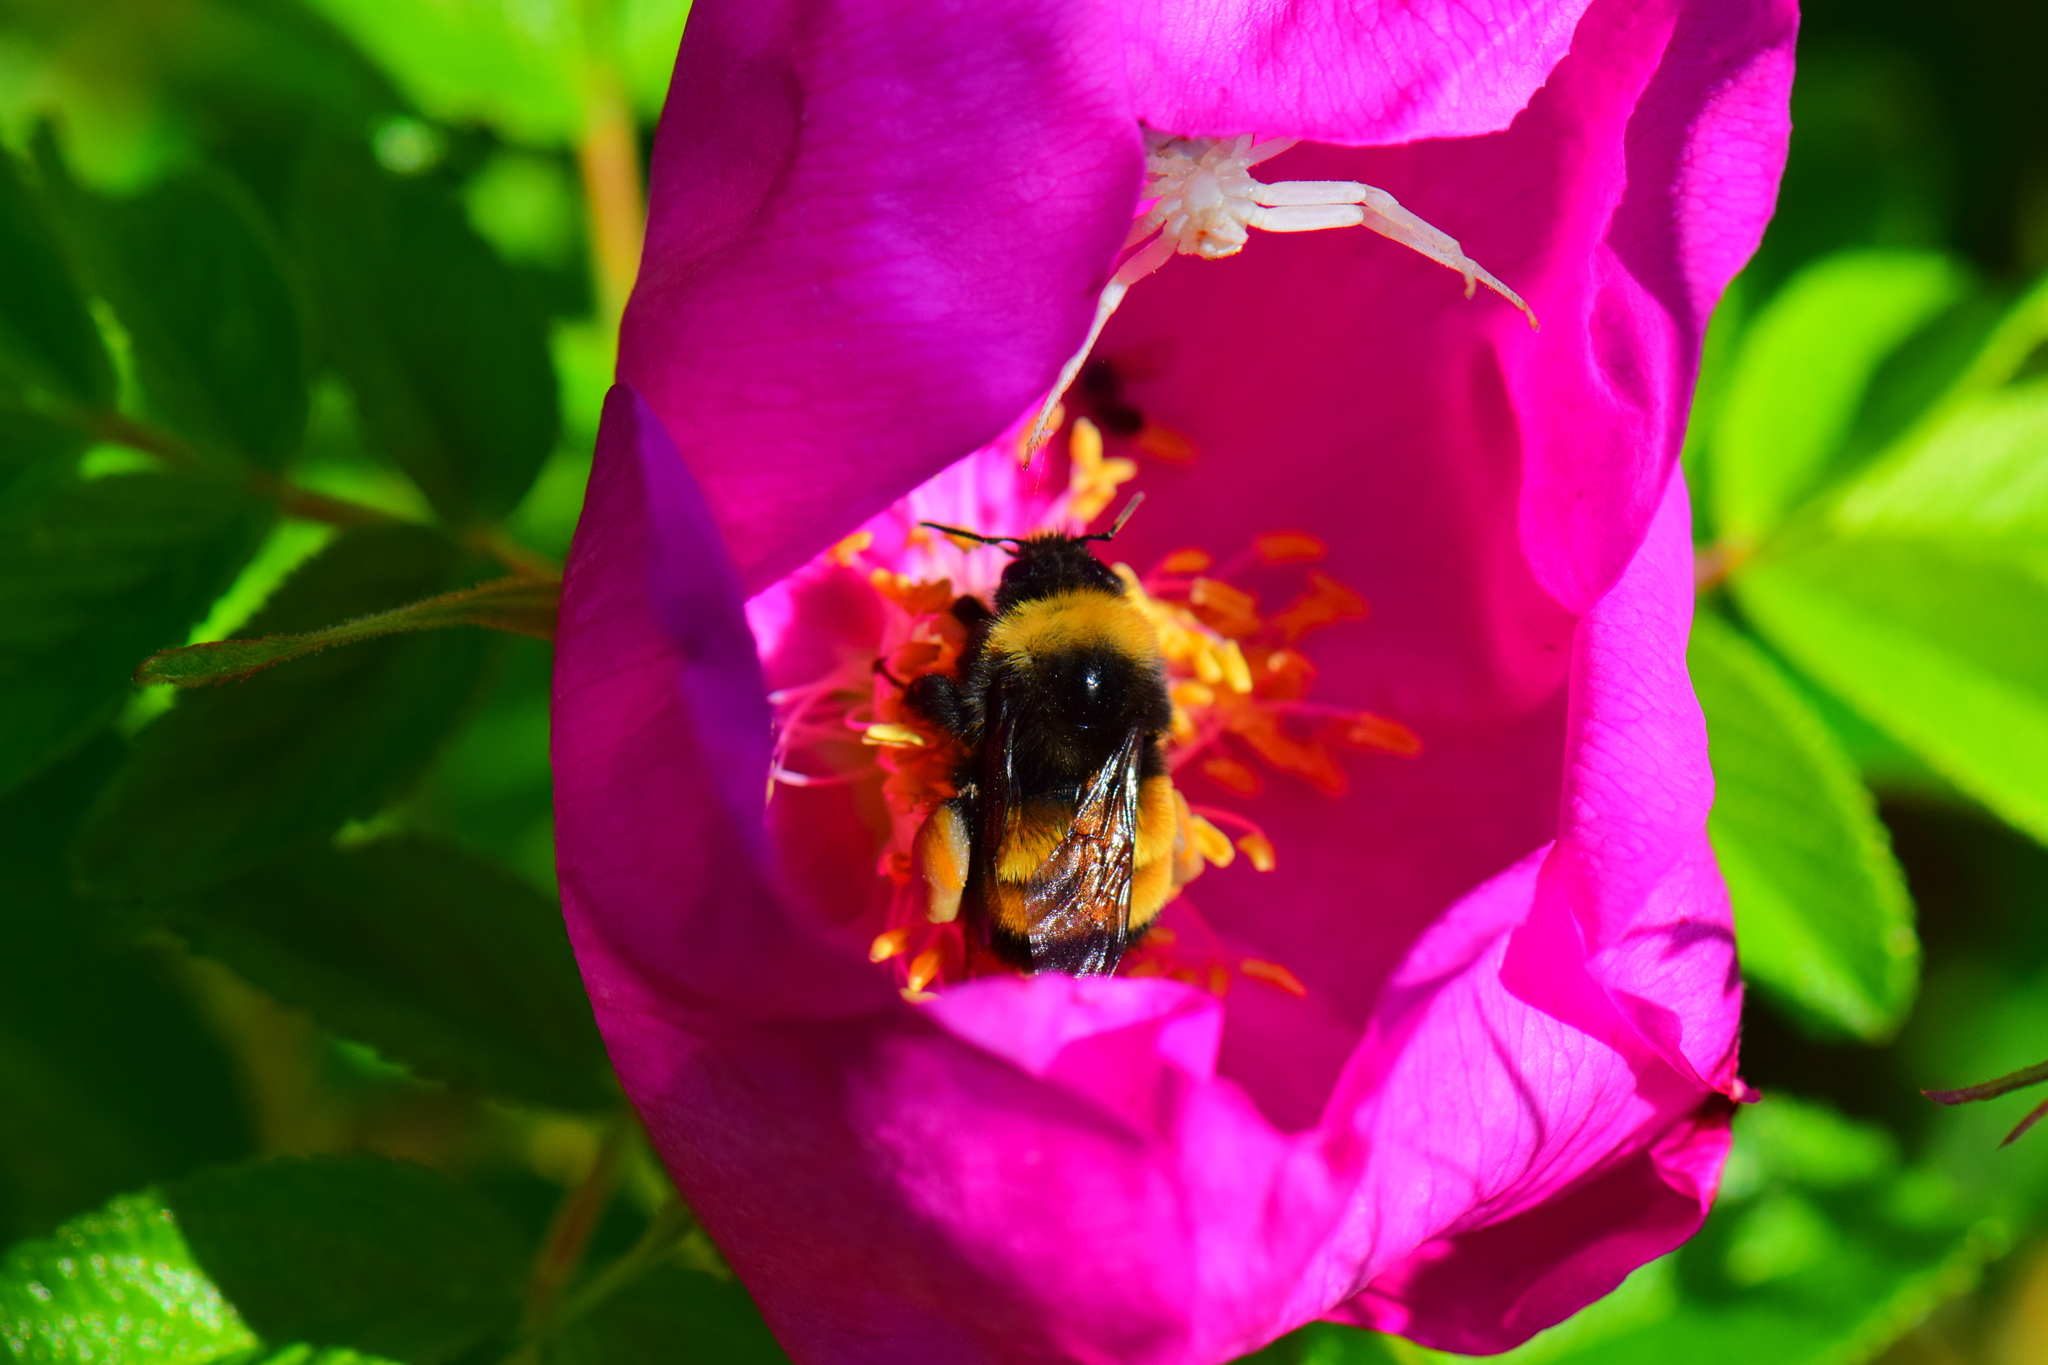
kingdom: Animalia
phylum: Arthropoda
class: Insecta
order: Hymenoptera
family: Apidae
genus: Bombus
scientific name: Bombus terricola
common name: Yellow-banded bumble bee
